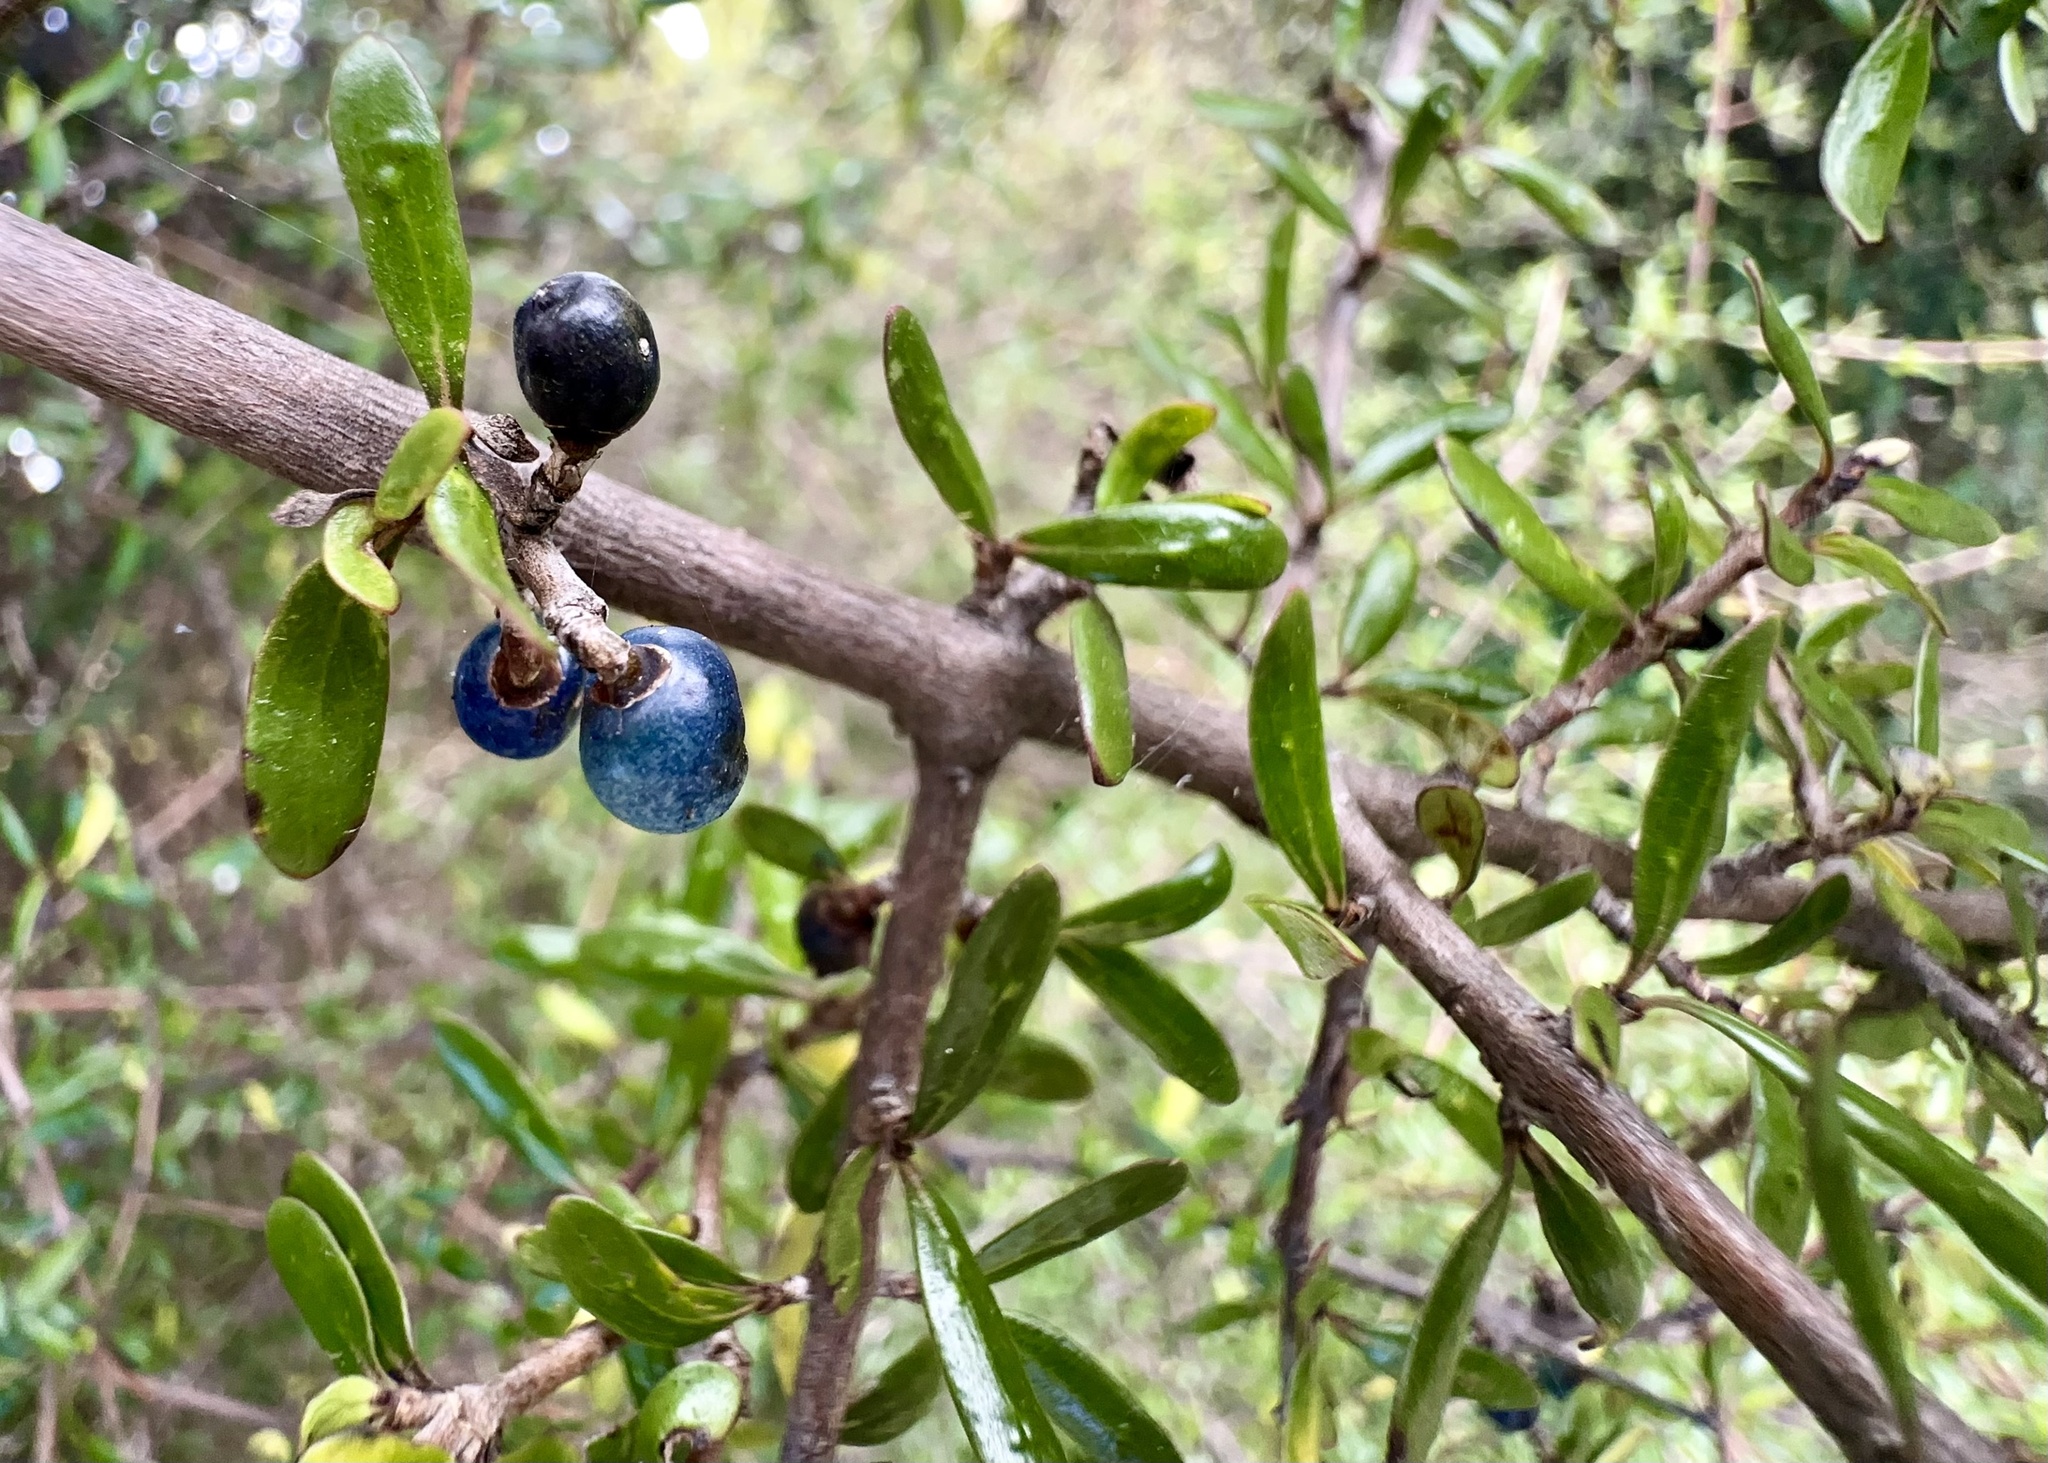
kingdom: Plantae
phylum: Tracheophyta
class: Magnoliopsida
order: Gentianales
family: Rubiaceae
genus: Coprosma
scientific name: Coprosma propinqua
